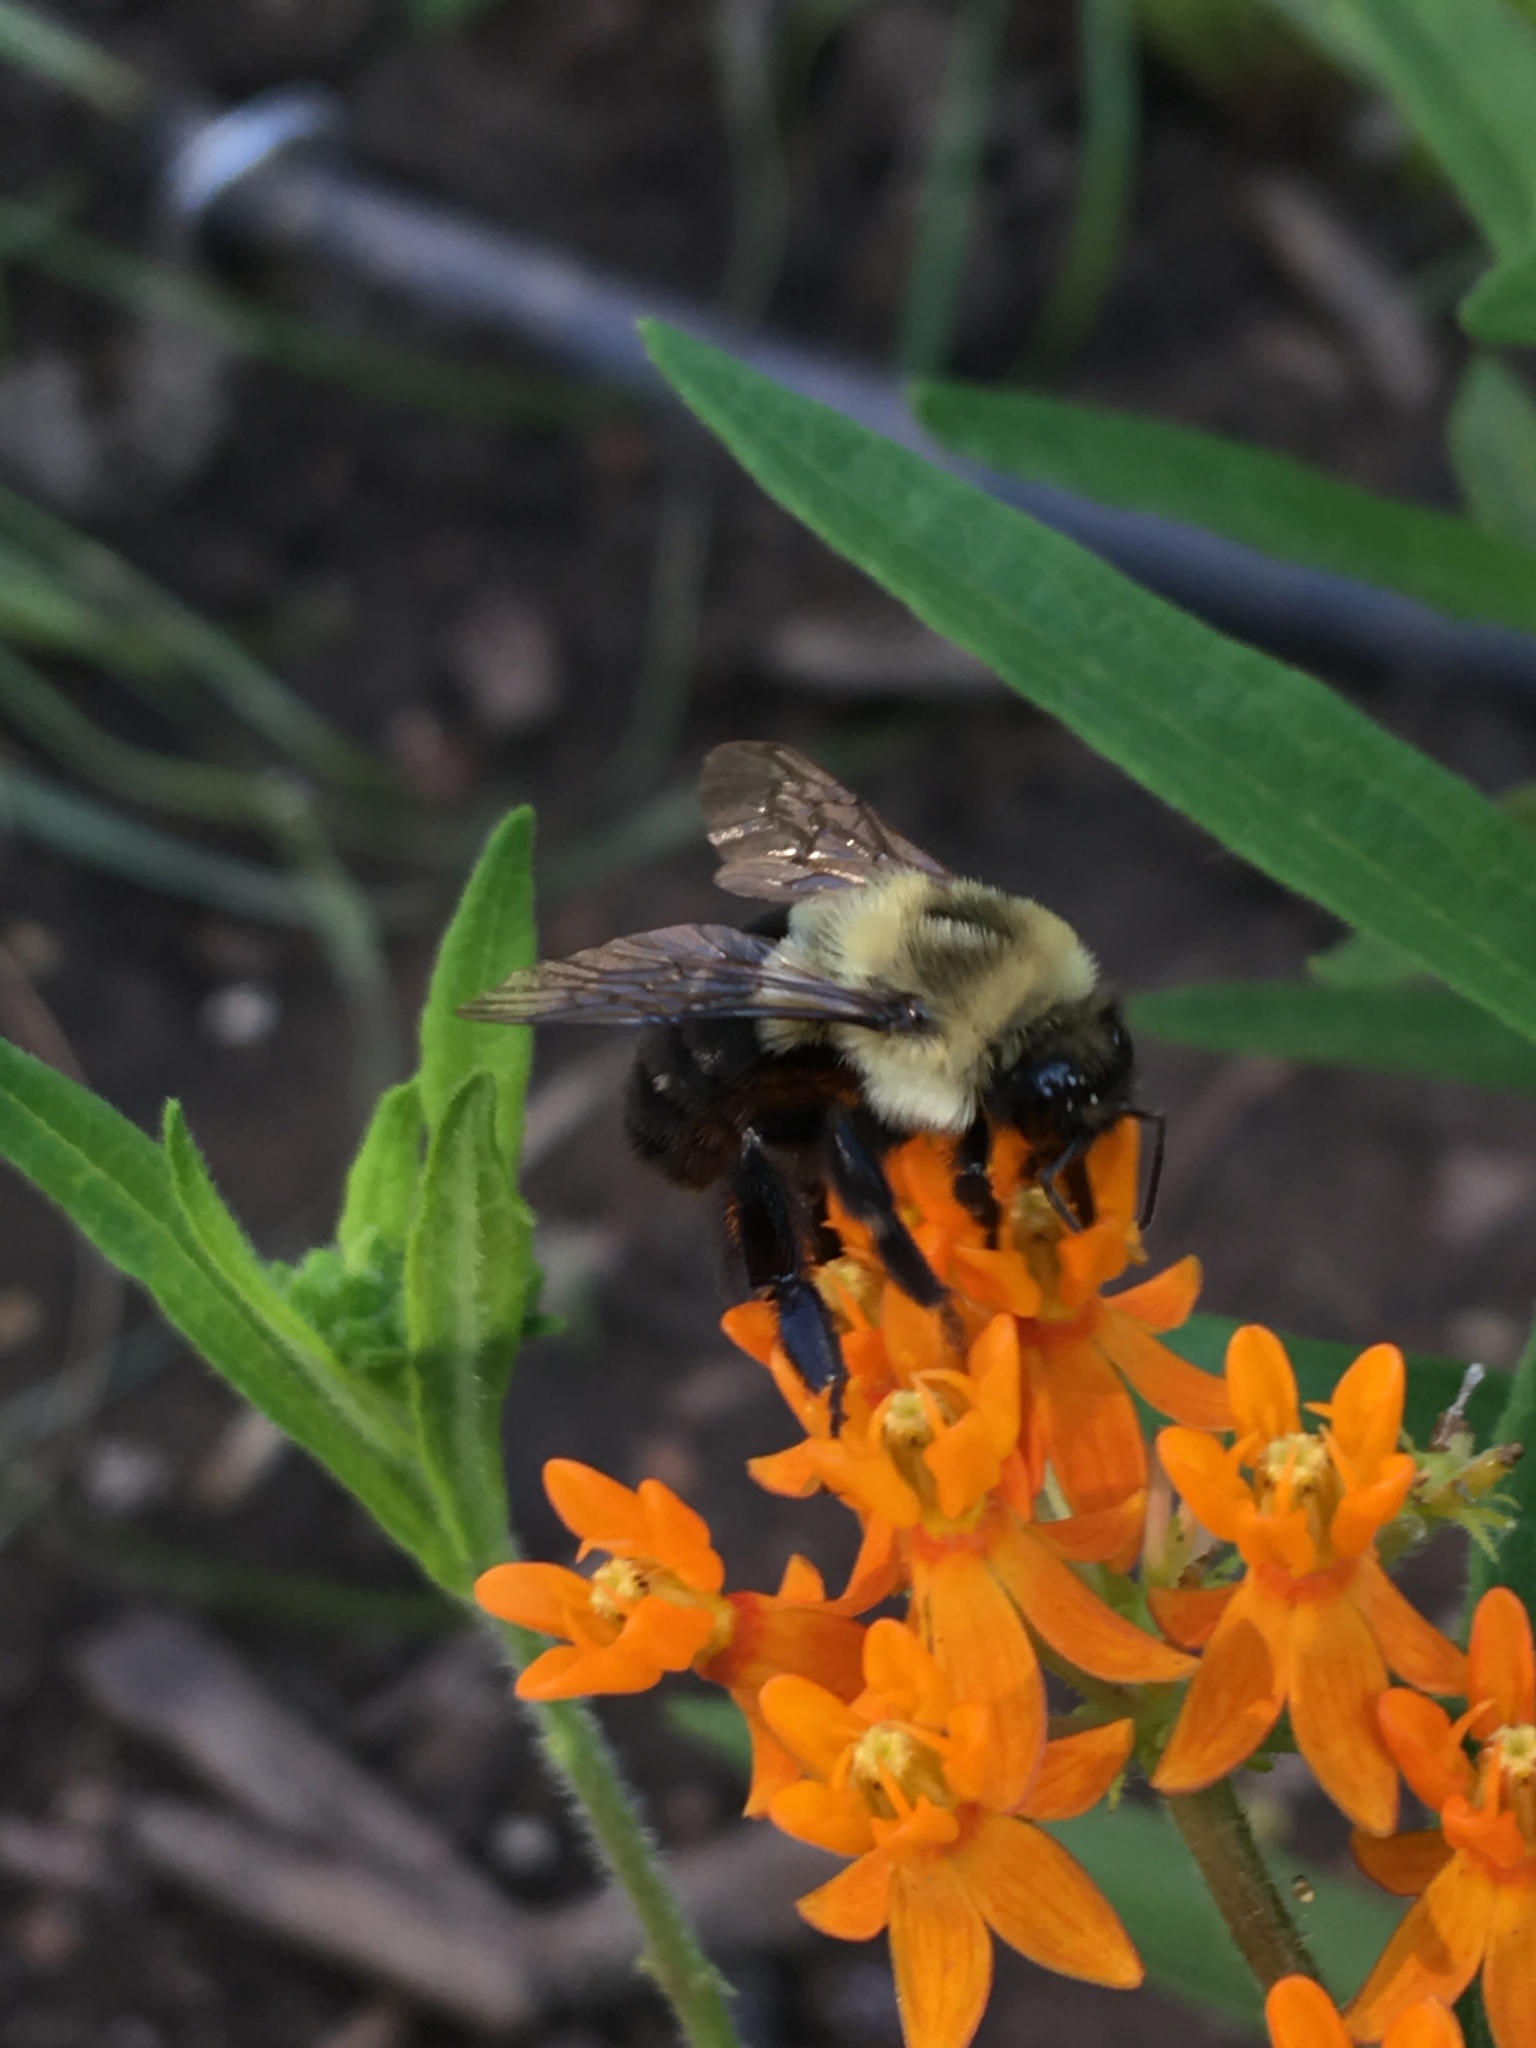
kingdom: Animalia
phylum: Arthropoda
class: Insecta
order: Hymenoptera
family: Apidae
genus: Bombus
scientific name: Bombus impatiens
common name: Common eastern bumble bee
